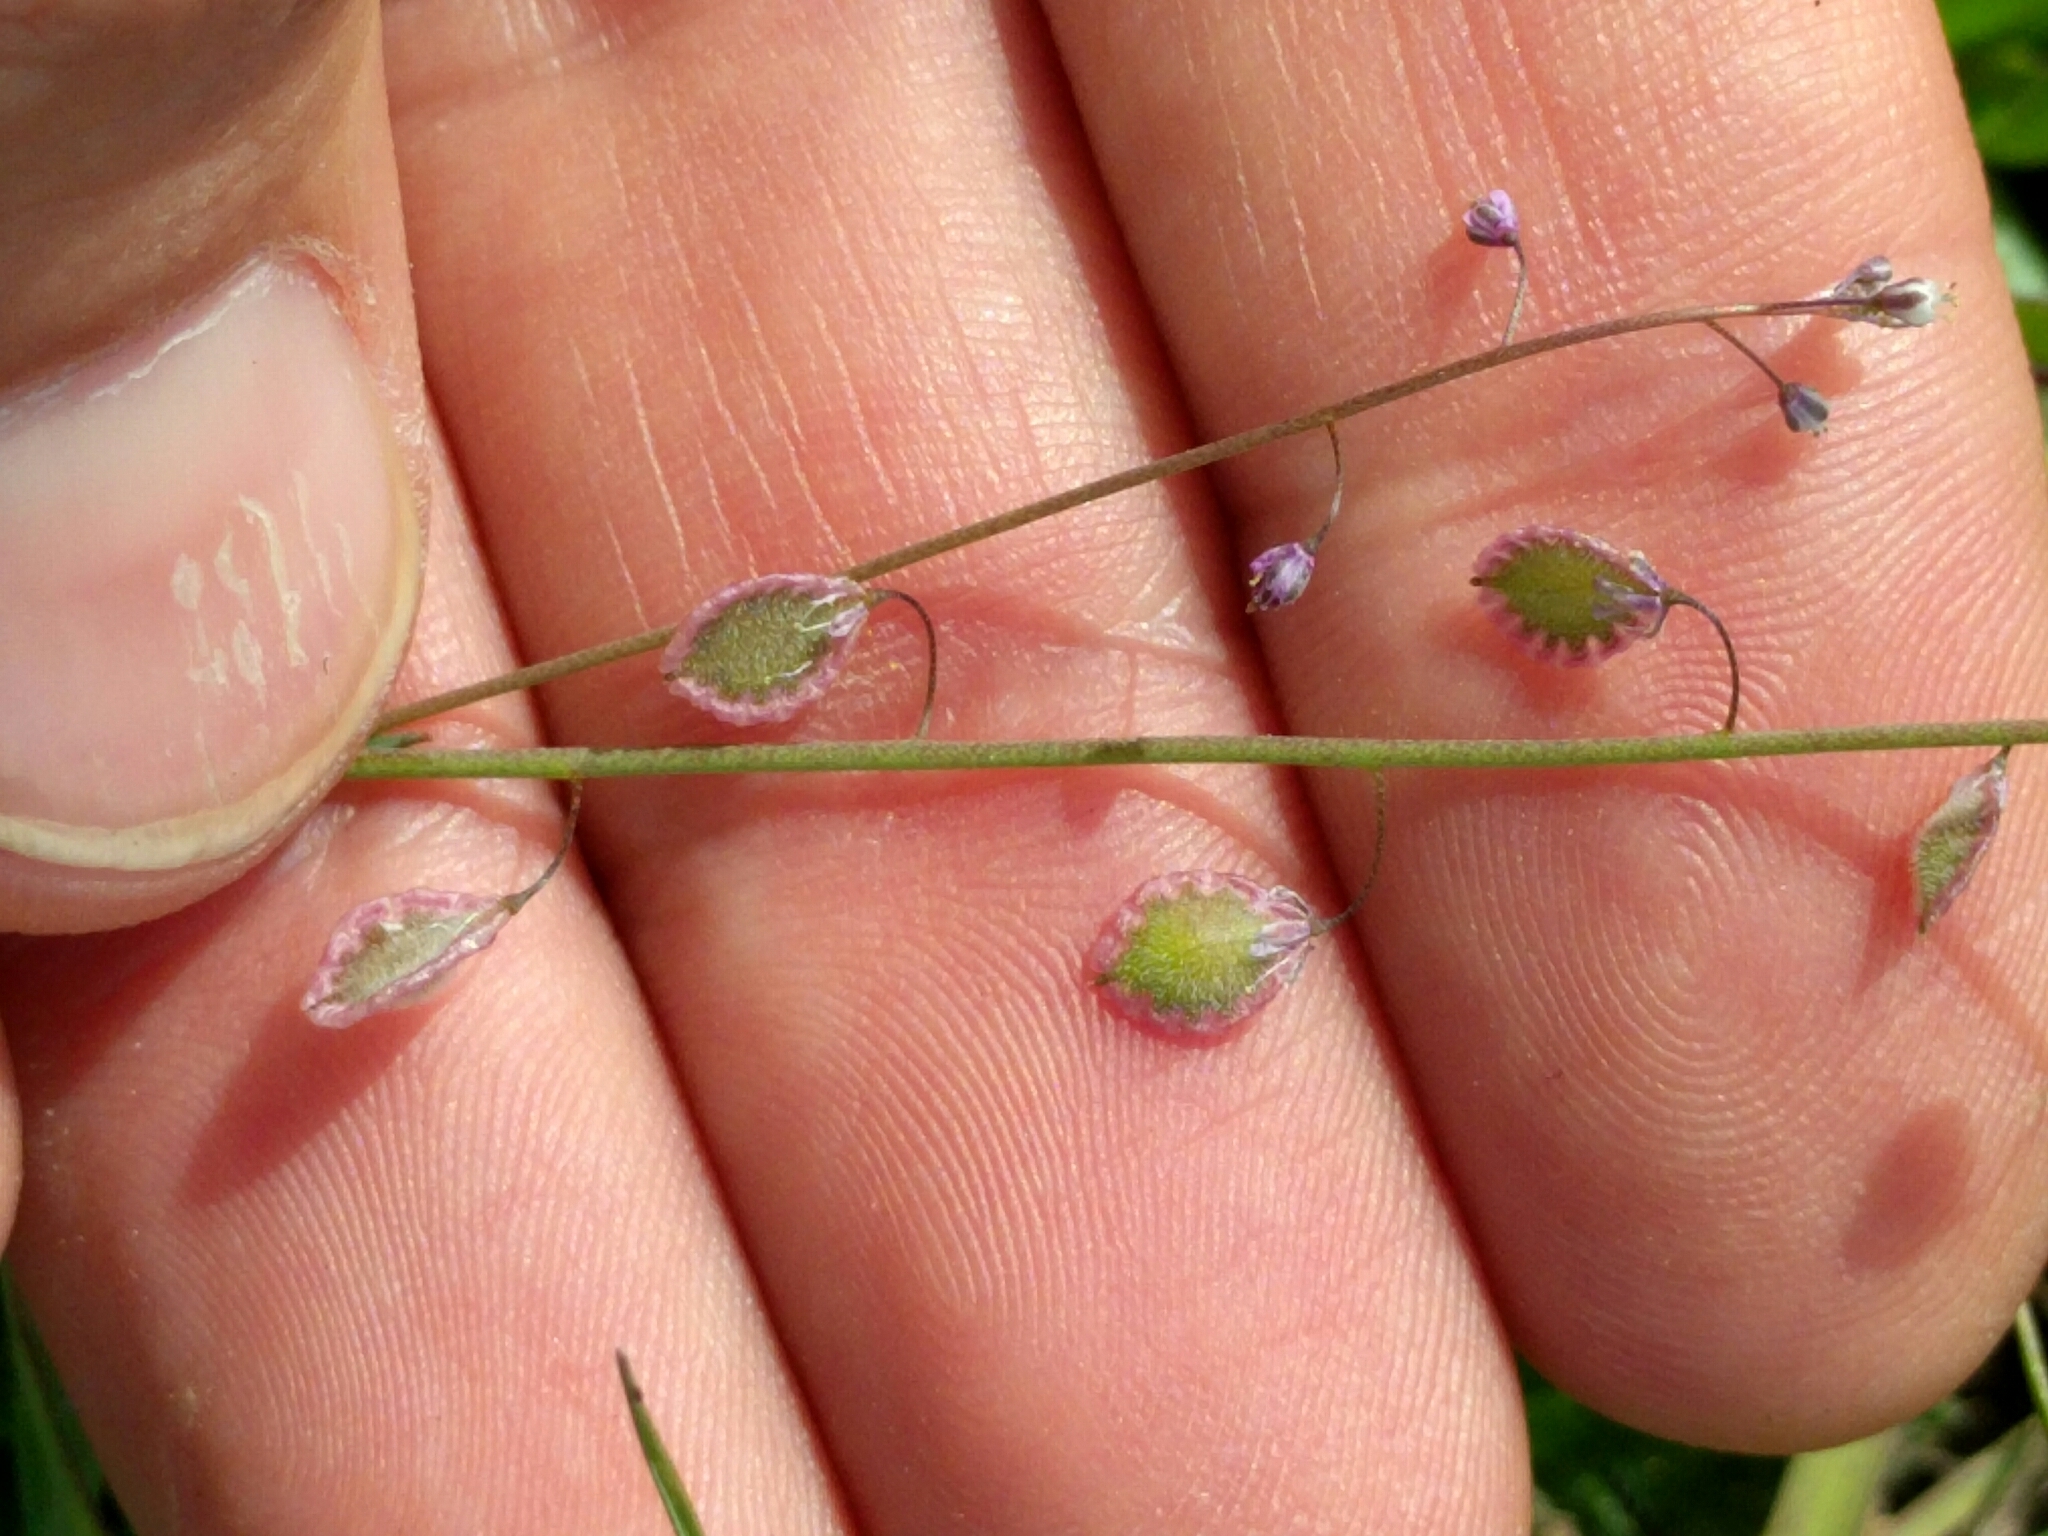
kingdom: Plantae
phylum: Tracheophyta
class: Magnoliopsida
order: Brassicales
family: Brassicaceae
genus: Thysanocarpus
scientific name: Thysanocarpus curvipes
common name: Sand fringepod
